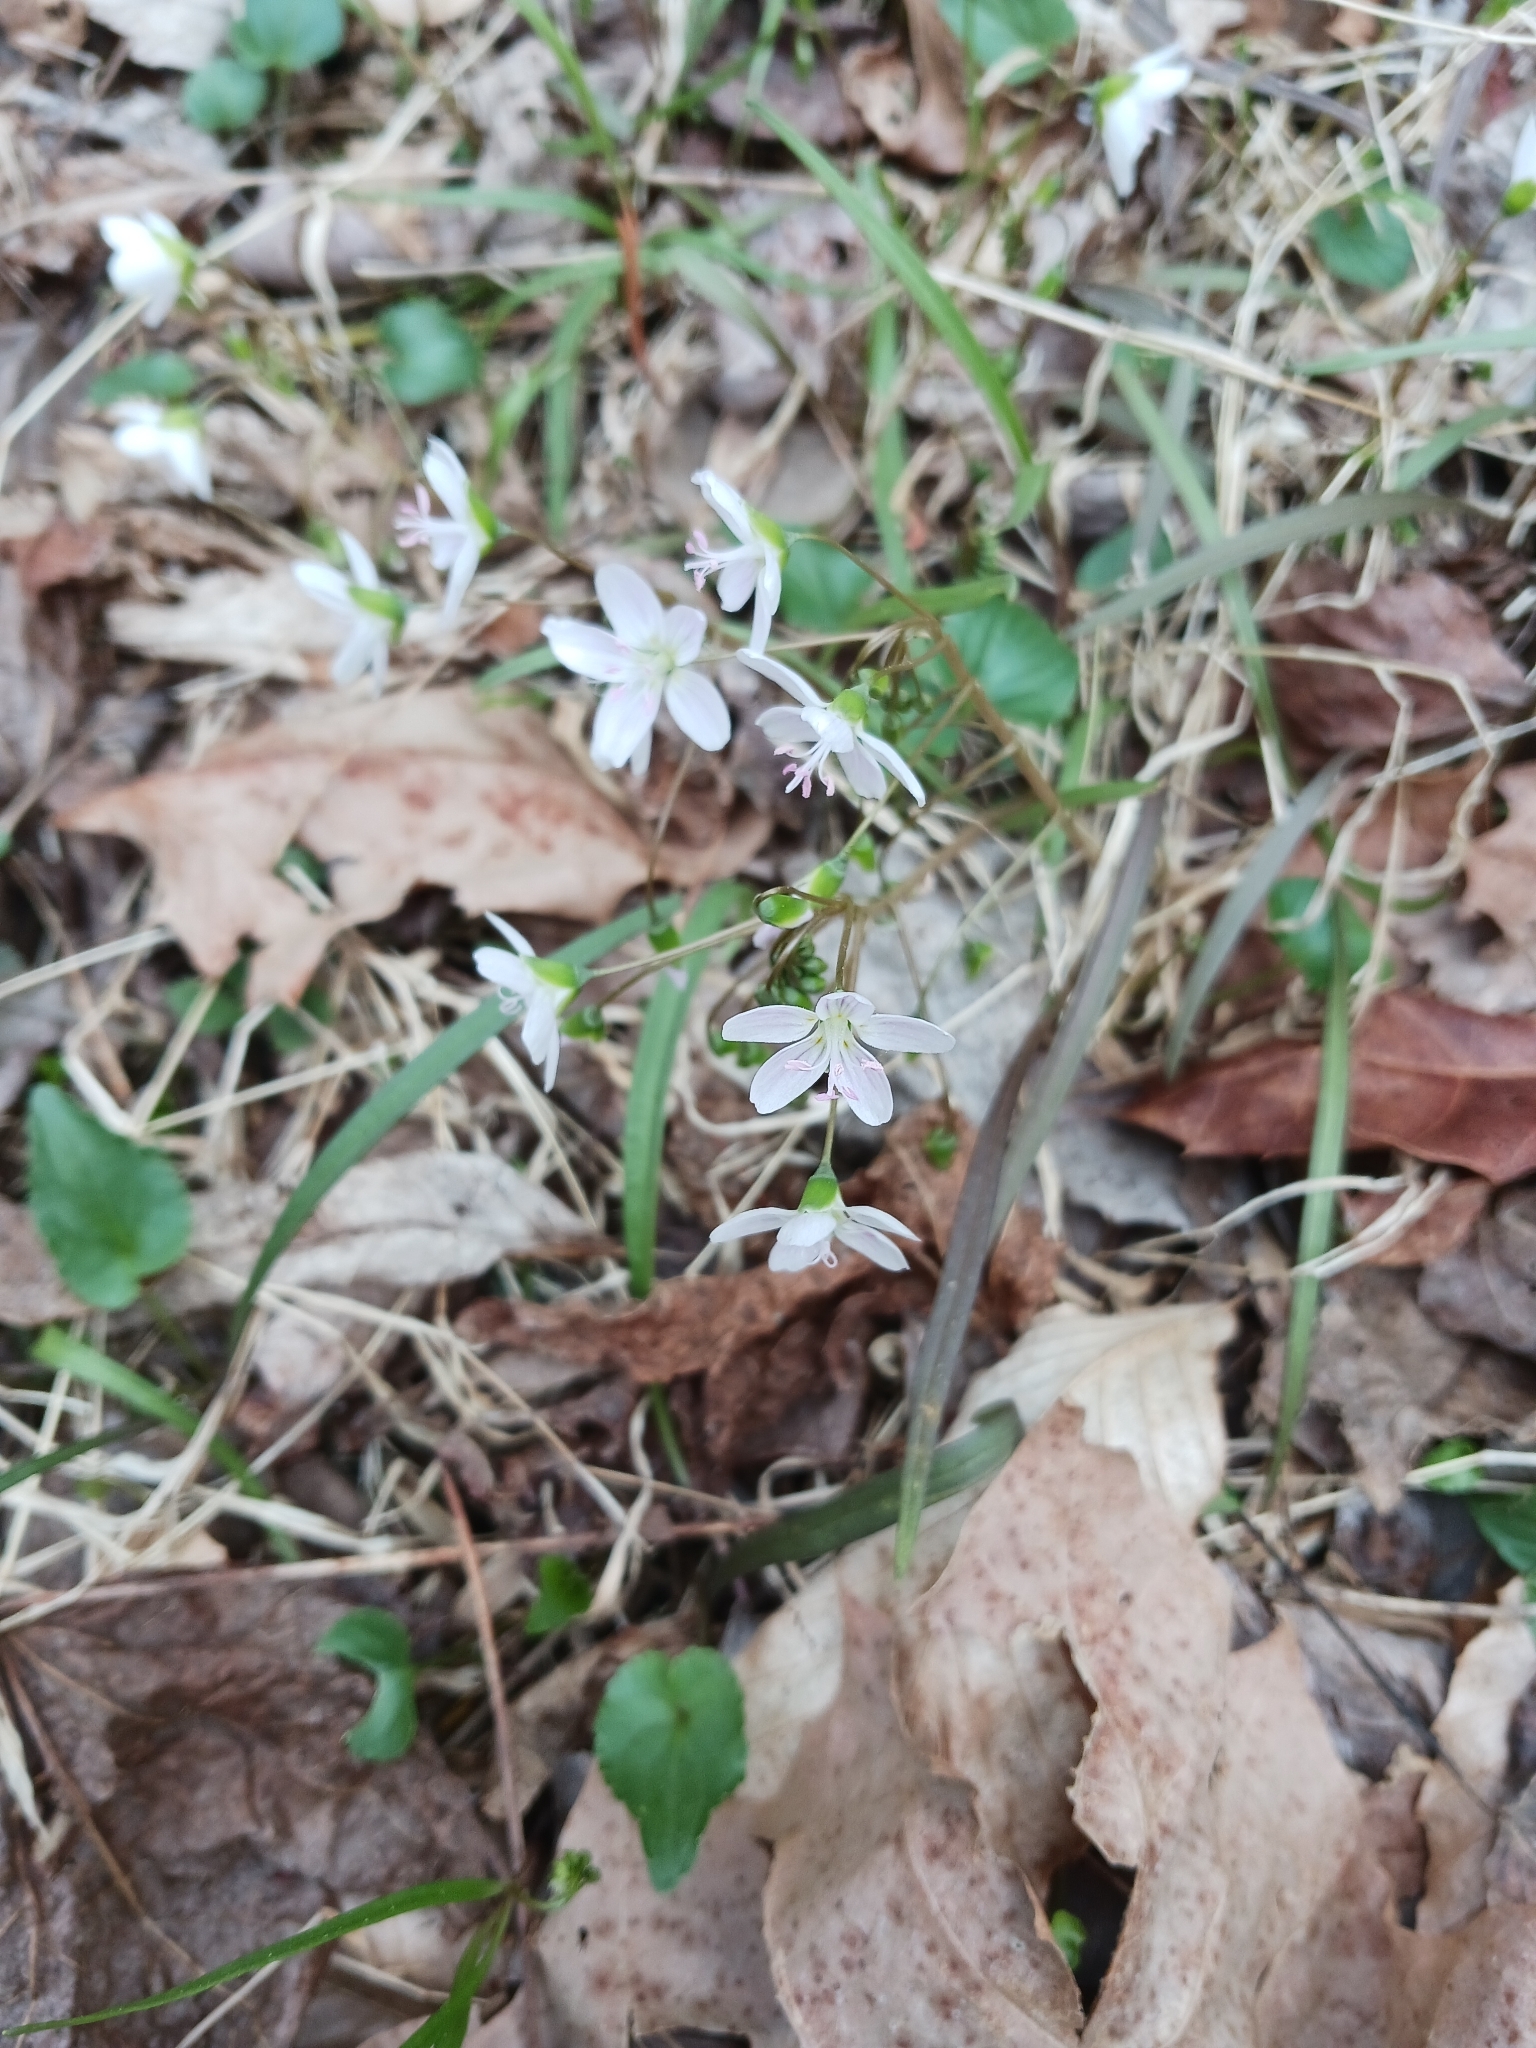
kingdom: Plantae
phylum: Tracheophyta
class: Magnoliopsida
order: Caryophyllales
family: Montiaceae
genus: Claytonia
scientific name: Claytonia virginica
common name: Virginia springbeauty
